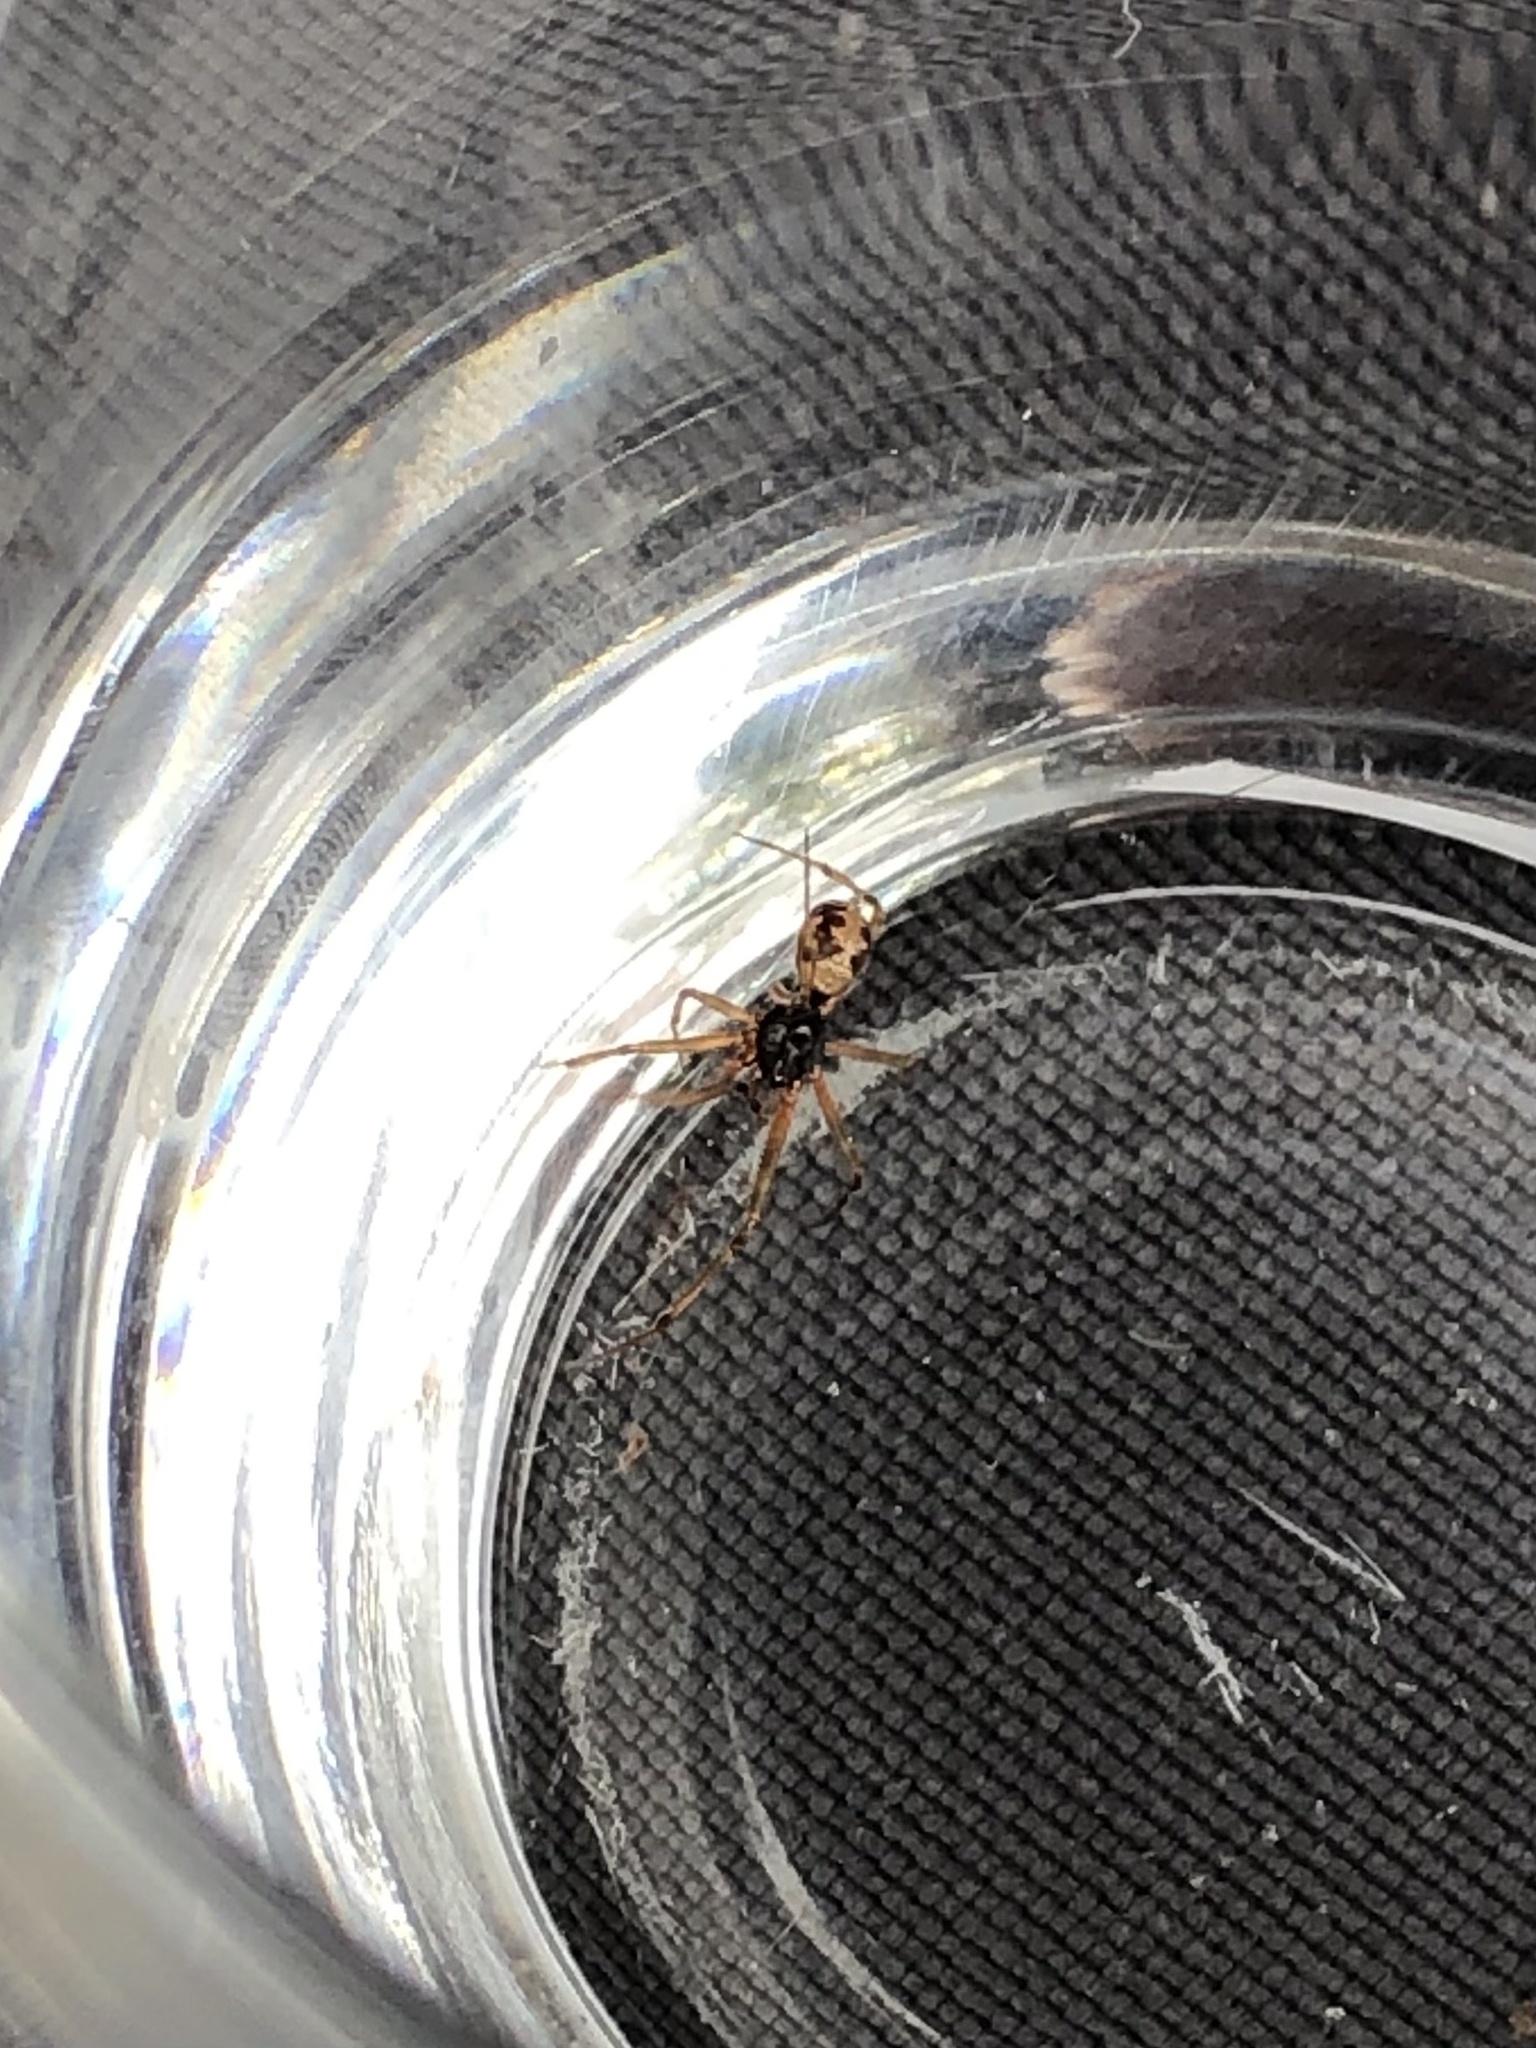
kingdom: Animalia
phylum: Arthropoda
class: Arachnida
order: Araneae
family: Theridiidae
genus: Steatoda
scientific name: Steatoda triangulosa
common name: Triangulate bud spider
